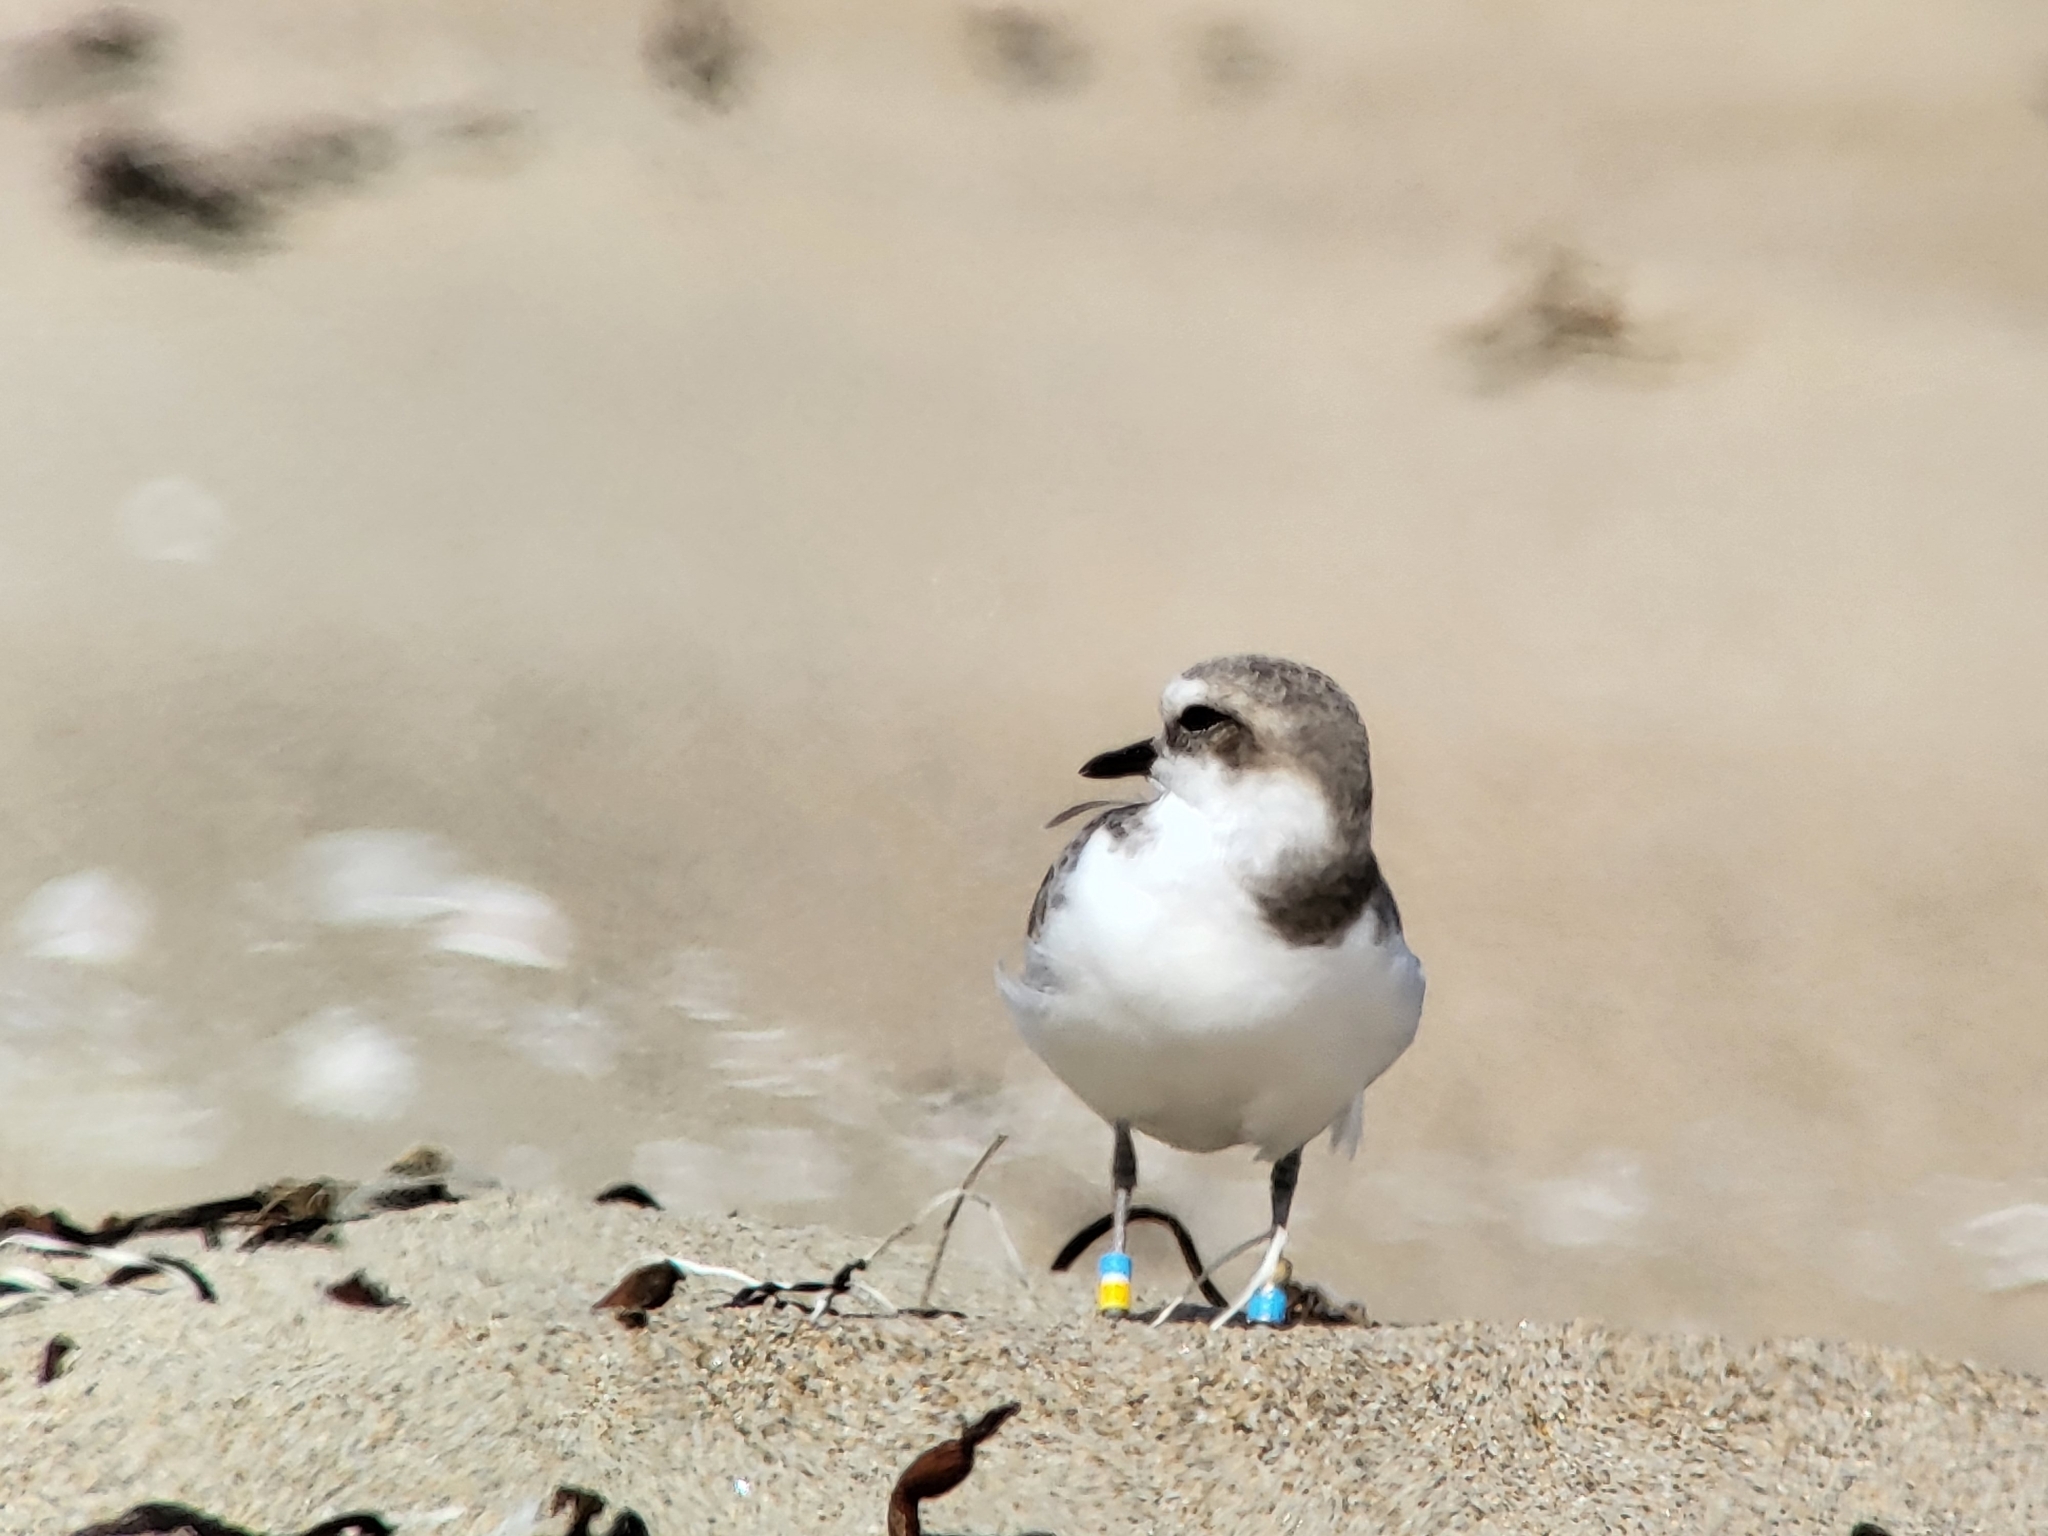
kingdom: Animalia
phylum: Chordata
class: Aves
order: Charadriiformes
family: Charadriidae
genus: Anarhynchus
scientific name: Anarhynchus
